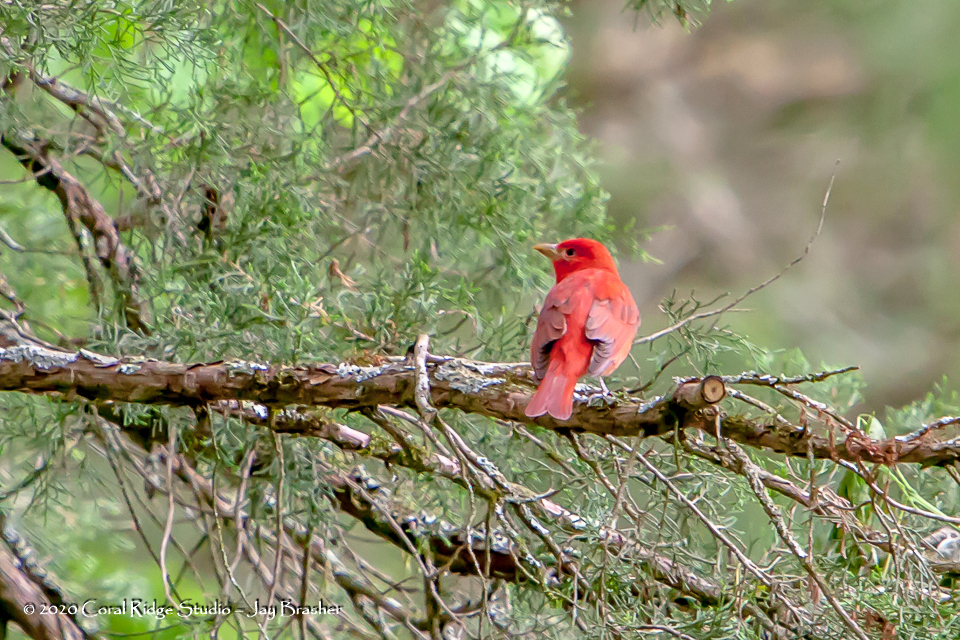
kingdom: Animalia
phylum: Chordata
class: Aves
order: Passeriformes
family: Cardinalidae
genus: Piranga
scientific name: Piranga rubra
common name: Summer tanager
